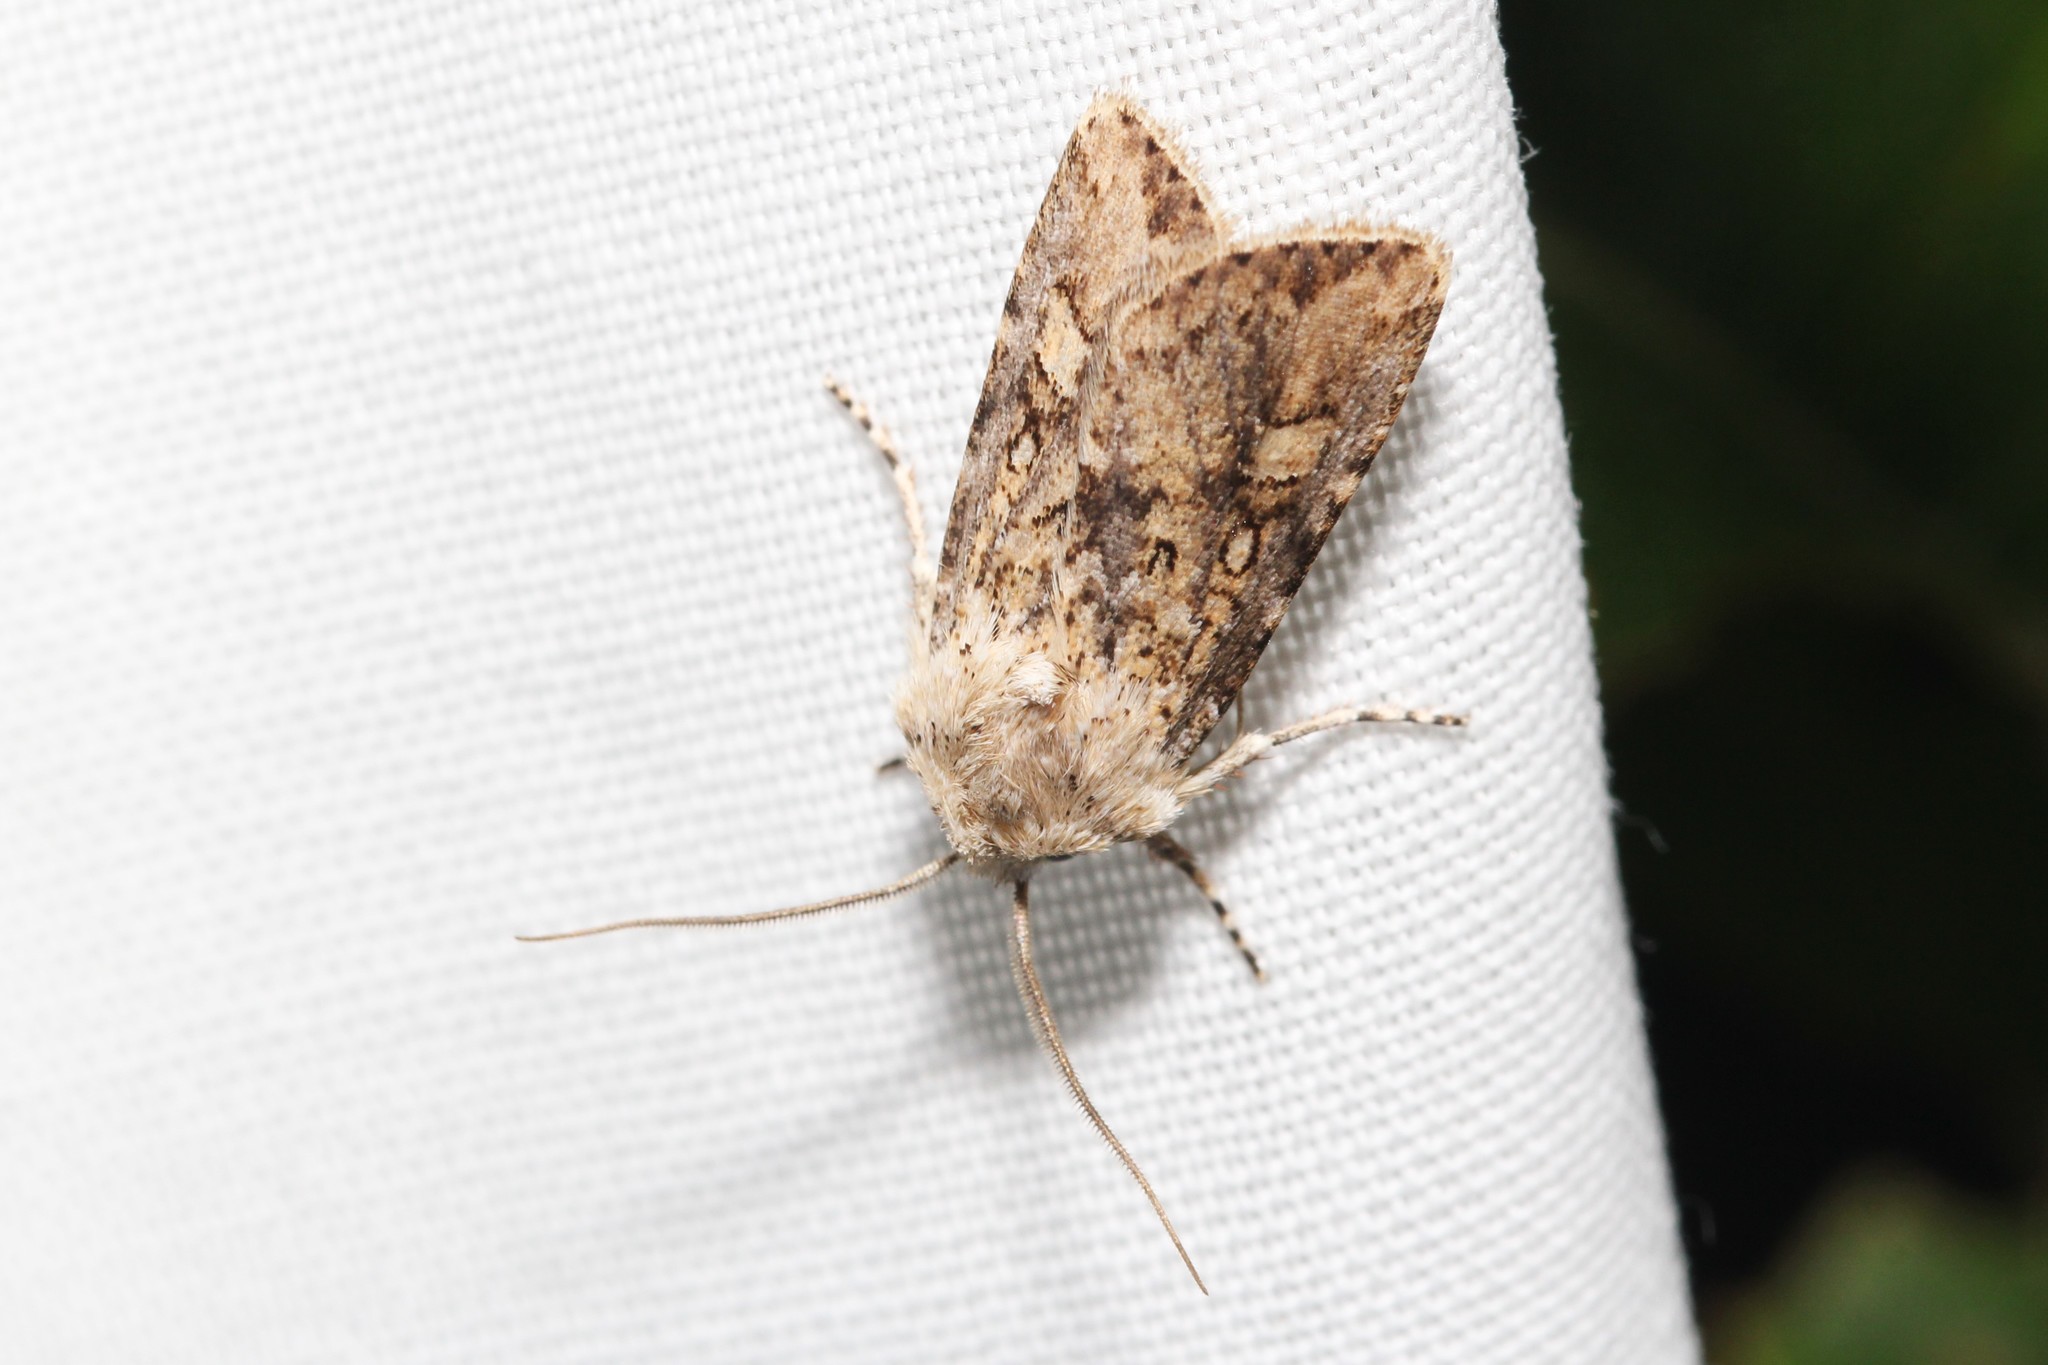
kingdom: Animalia
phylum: Arthropoda
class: Insecta
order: Lepidoptera
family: Noctuidae
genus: Euxoa
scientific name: Euxoa detersa
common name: Rubbed dart
